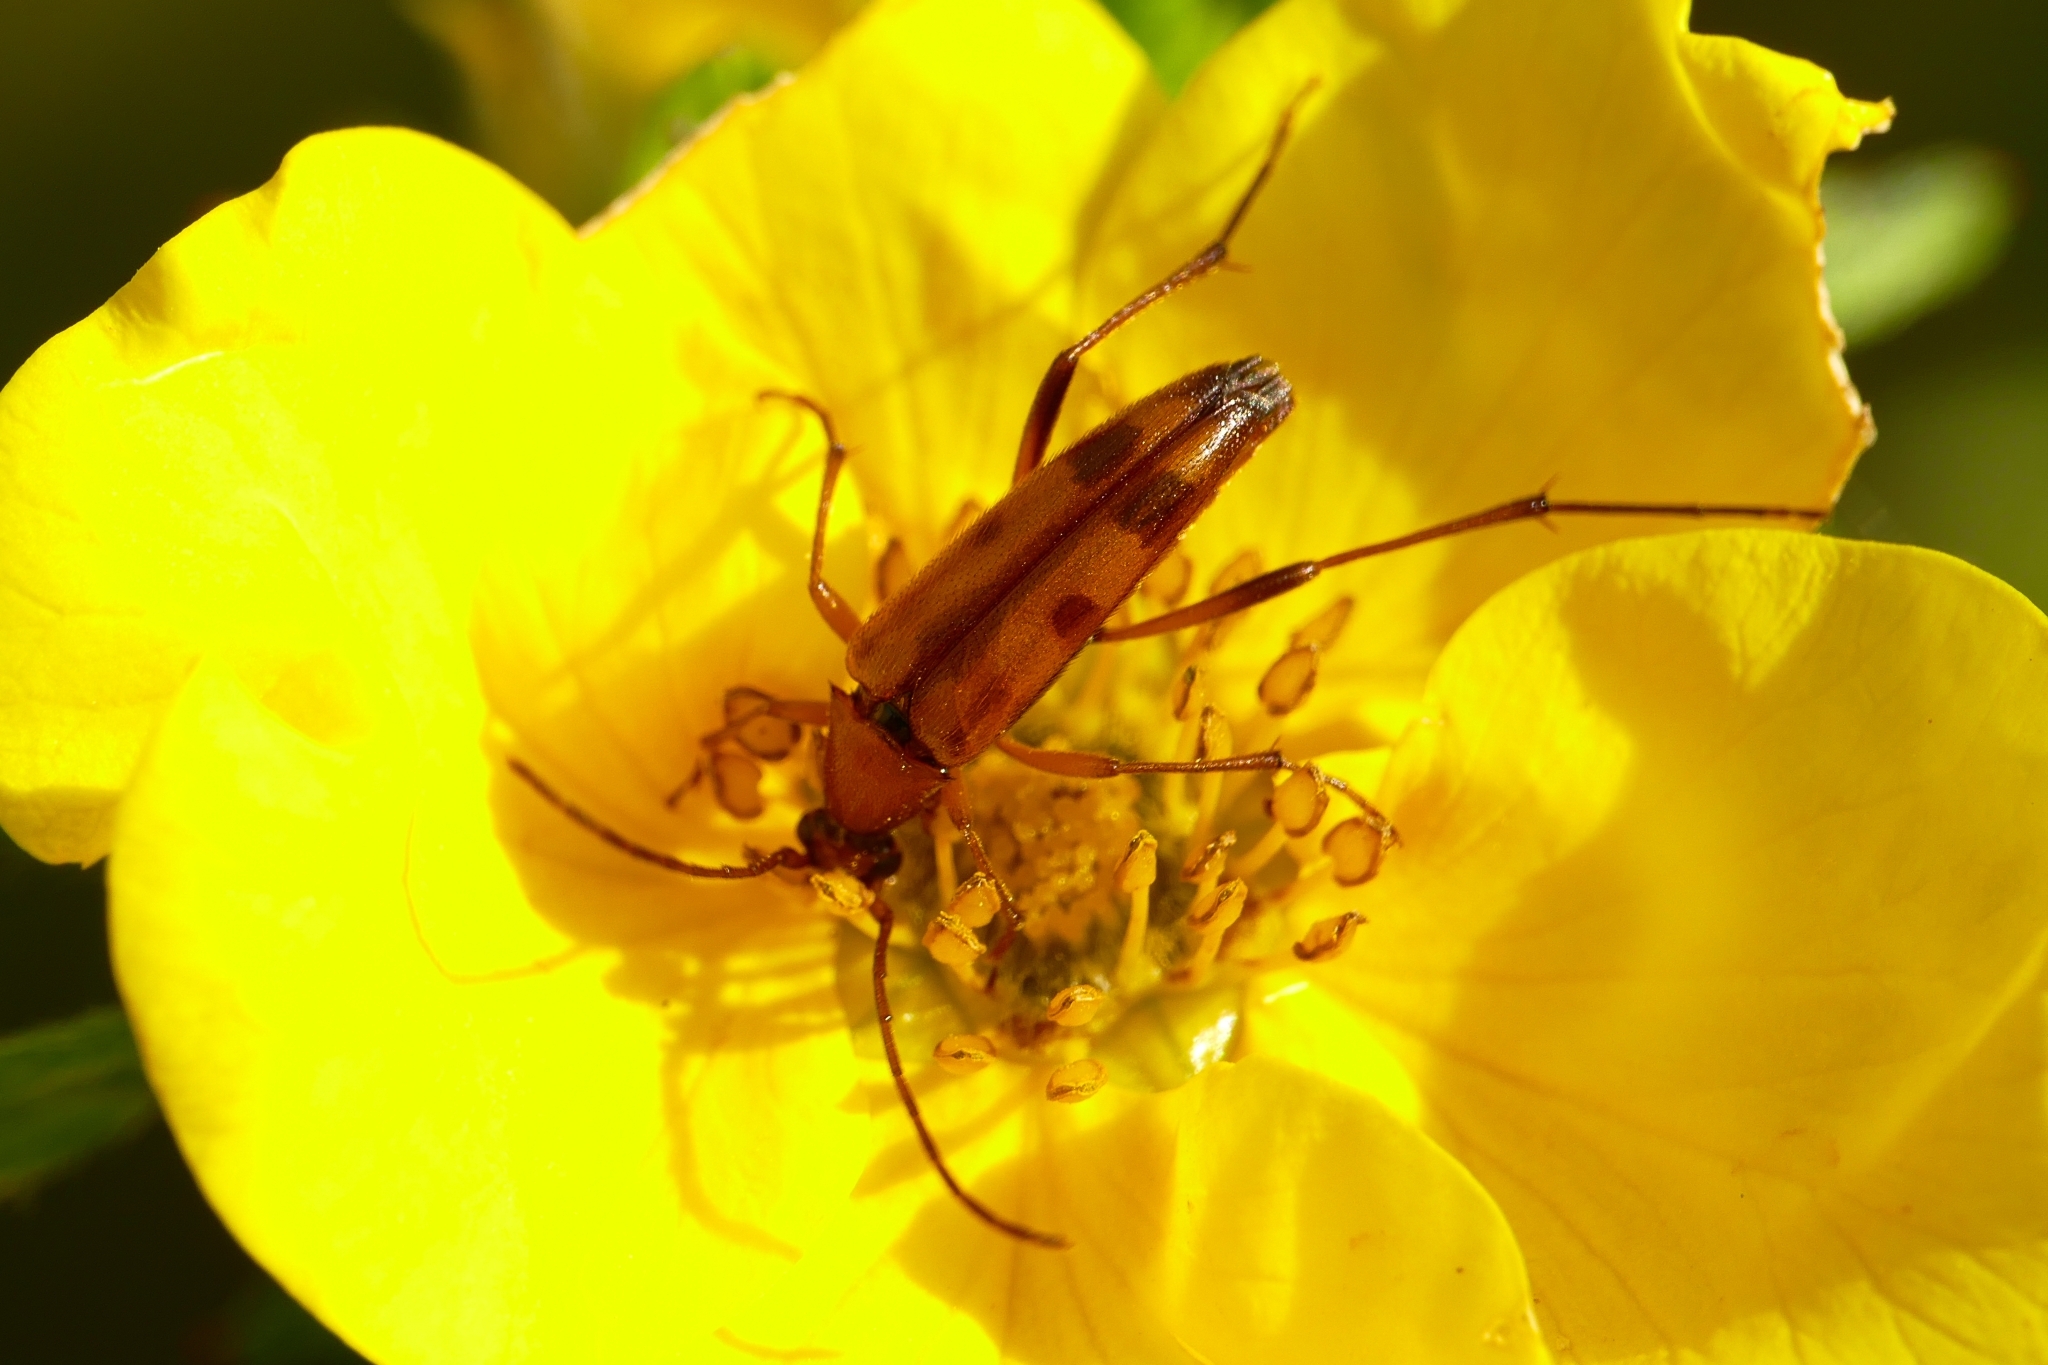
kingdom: Animalia
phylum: Arthropoda
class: Insecta
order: Coleoptera
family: Cerambycidae
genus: Stenurella
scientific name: Stenurella septempunctata
